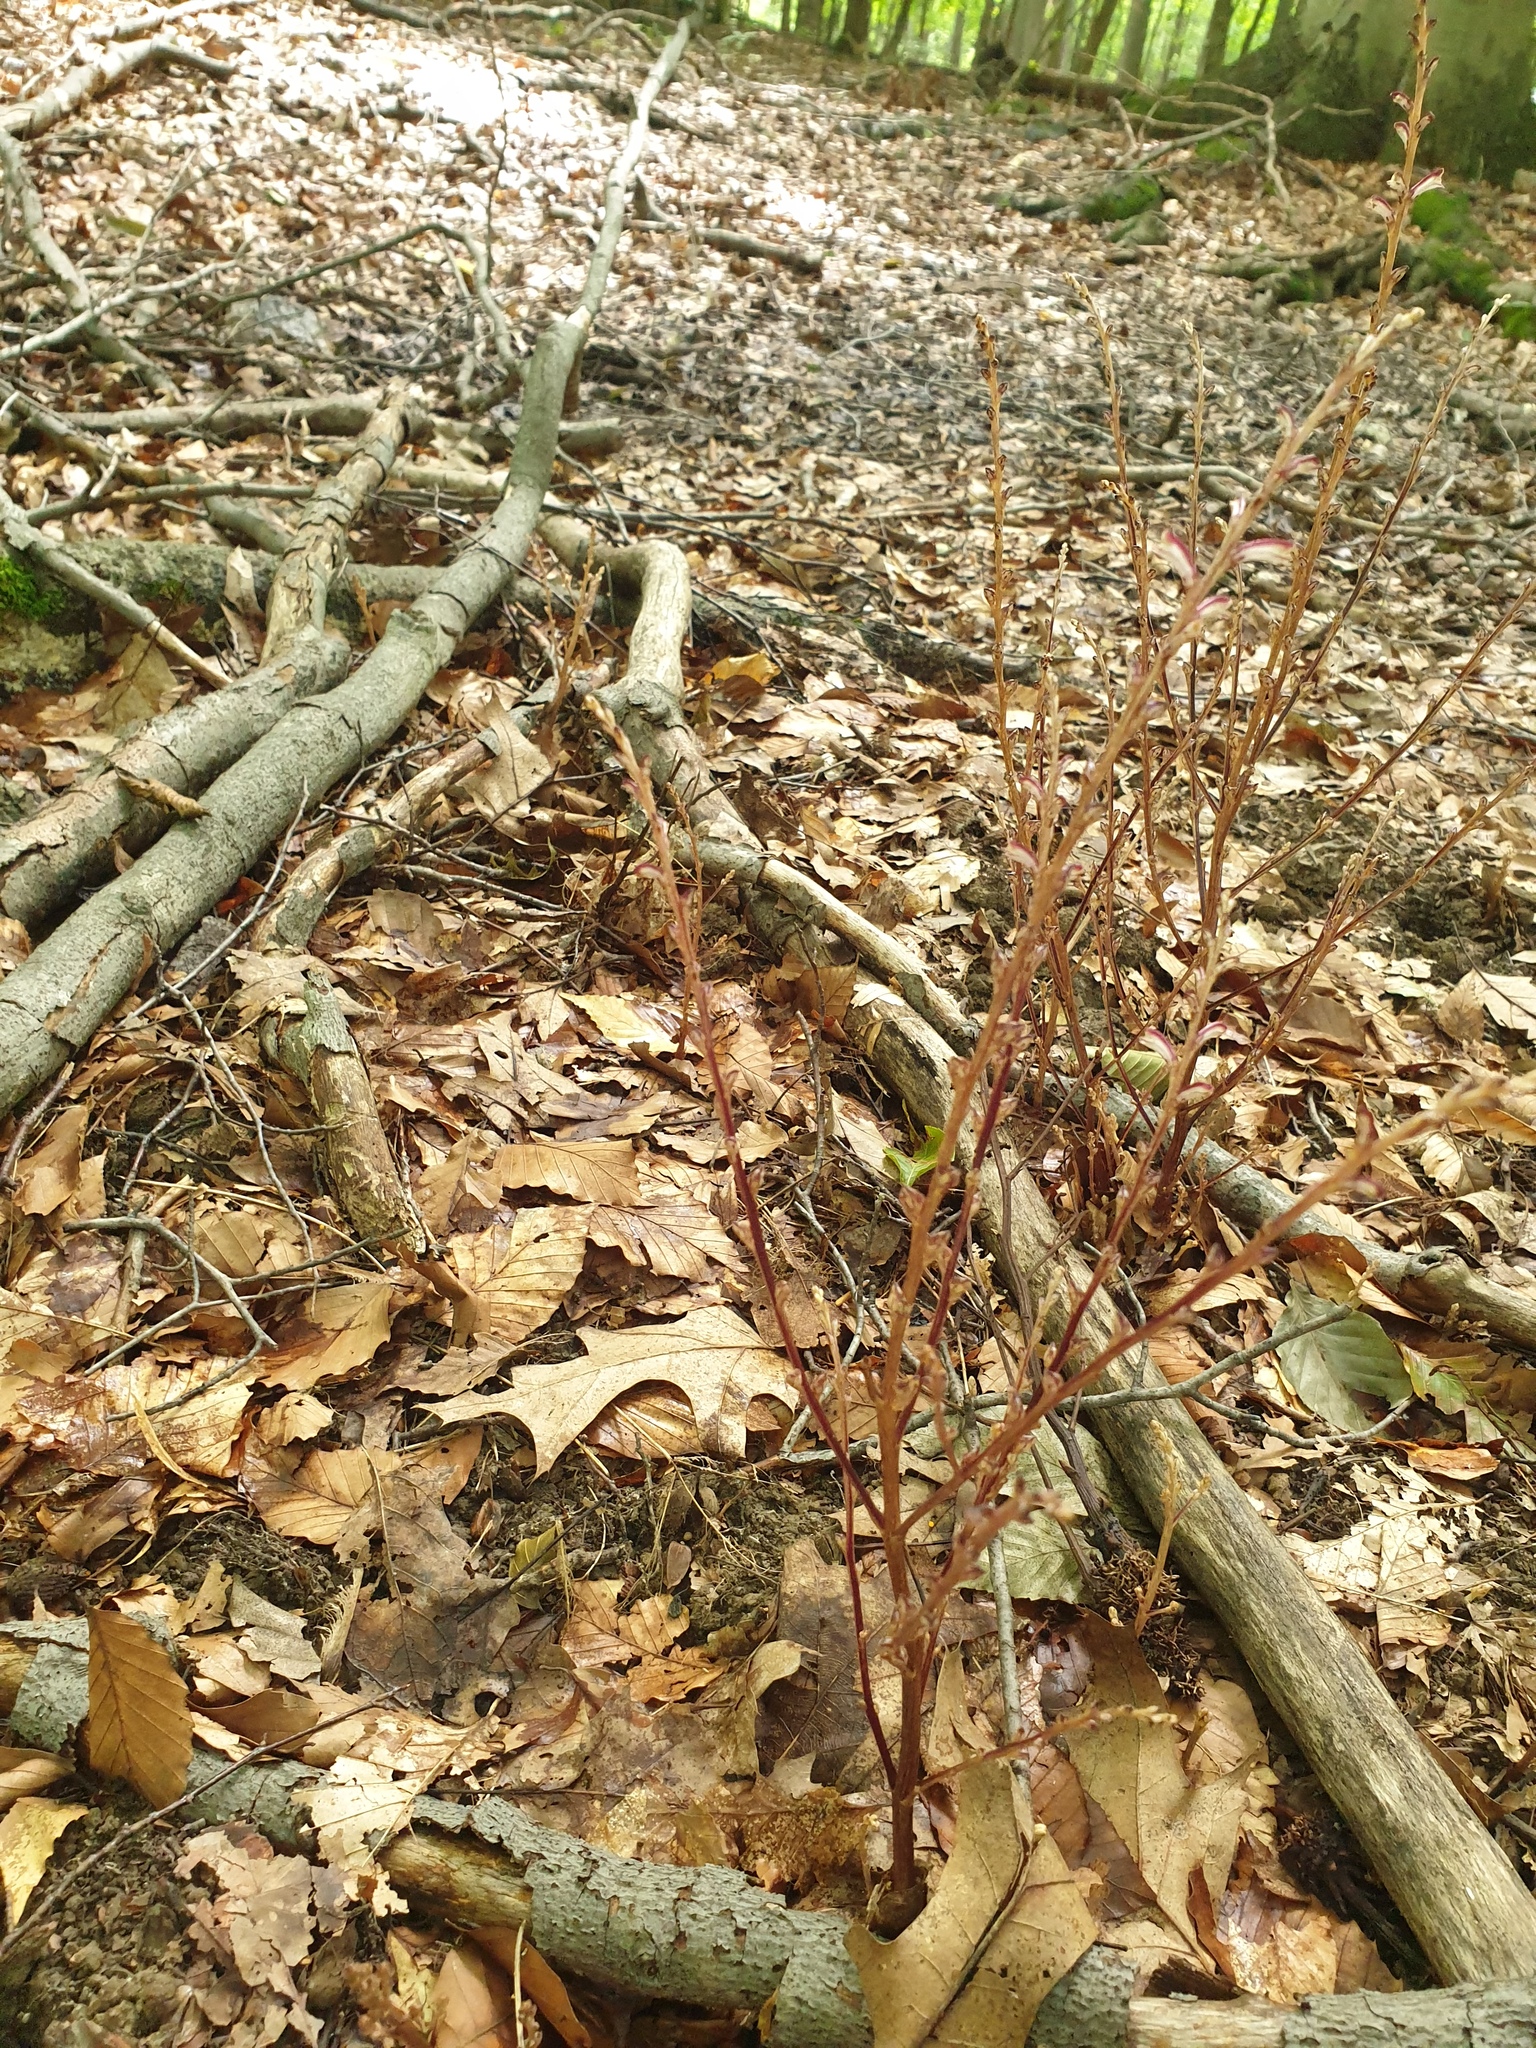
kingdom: Plantae
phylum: Tracheophyta
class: Magnoliopsida
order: Lamiales
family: Orobanchaceae
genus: Epifagus
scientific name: Epifagus virginiana
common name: Beechdrops
